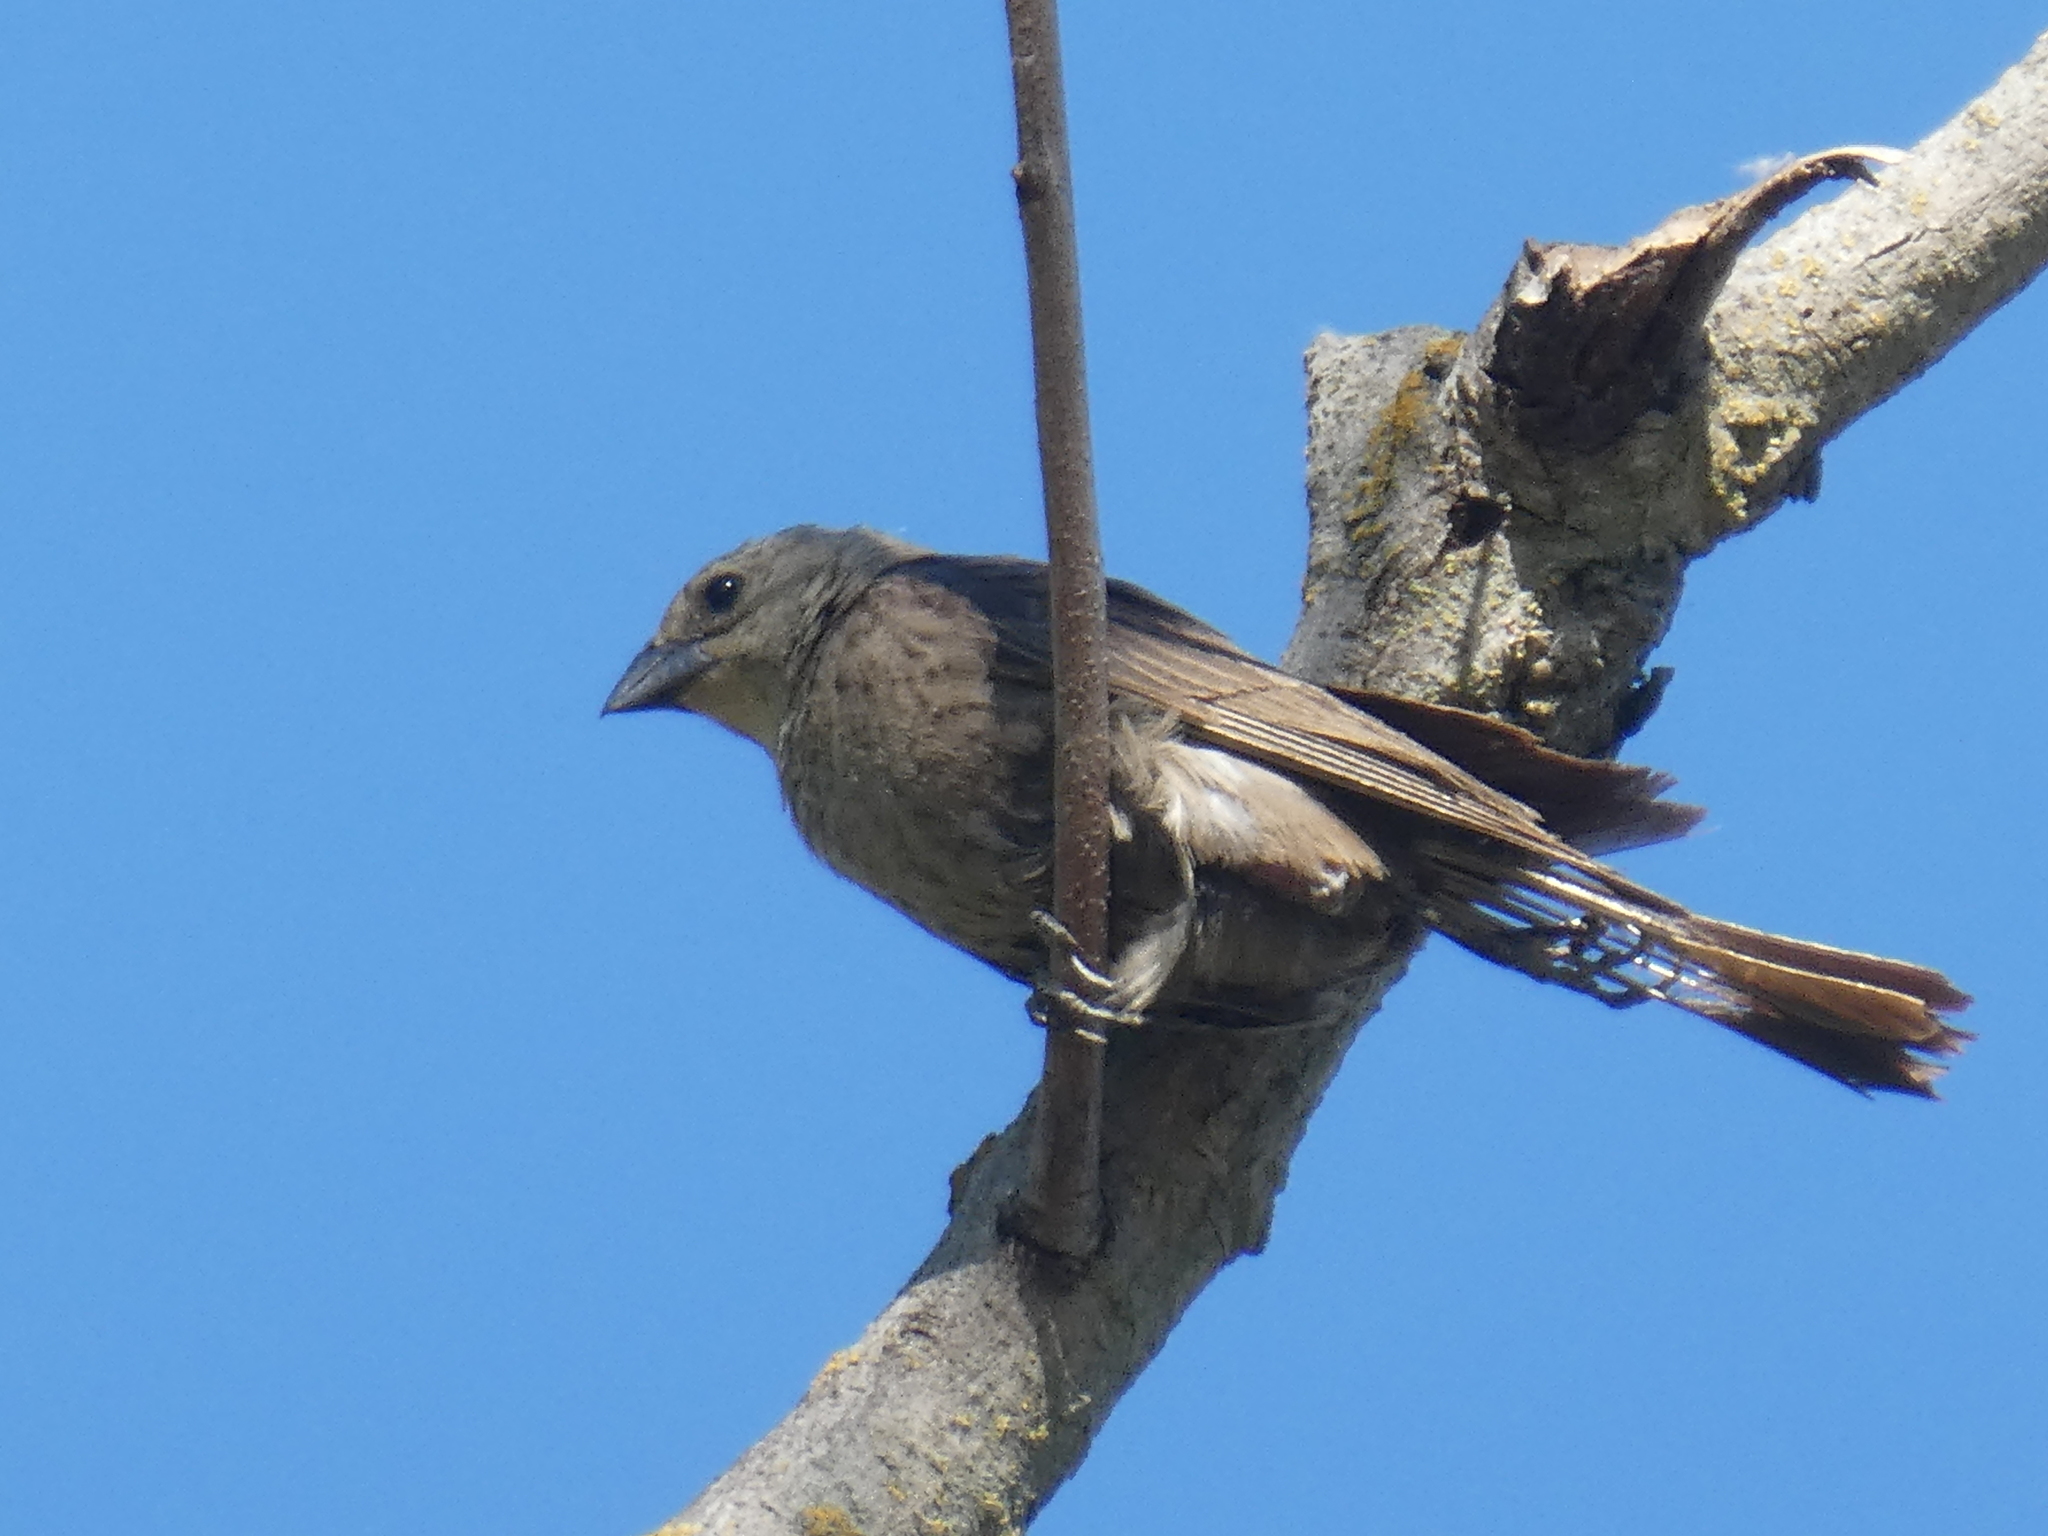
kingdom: Animalia
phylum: Chordata
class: Aves
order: Passeriformes
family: Icteridae
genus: Molothrus
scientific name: Molothrus ater
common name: Brown-headed cowbird
